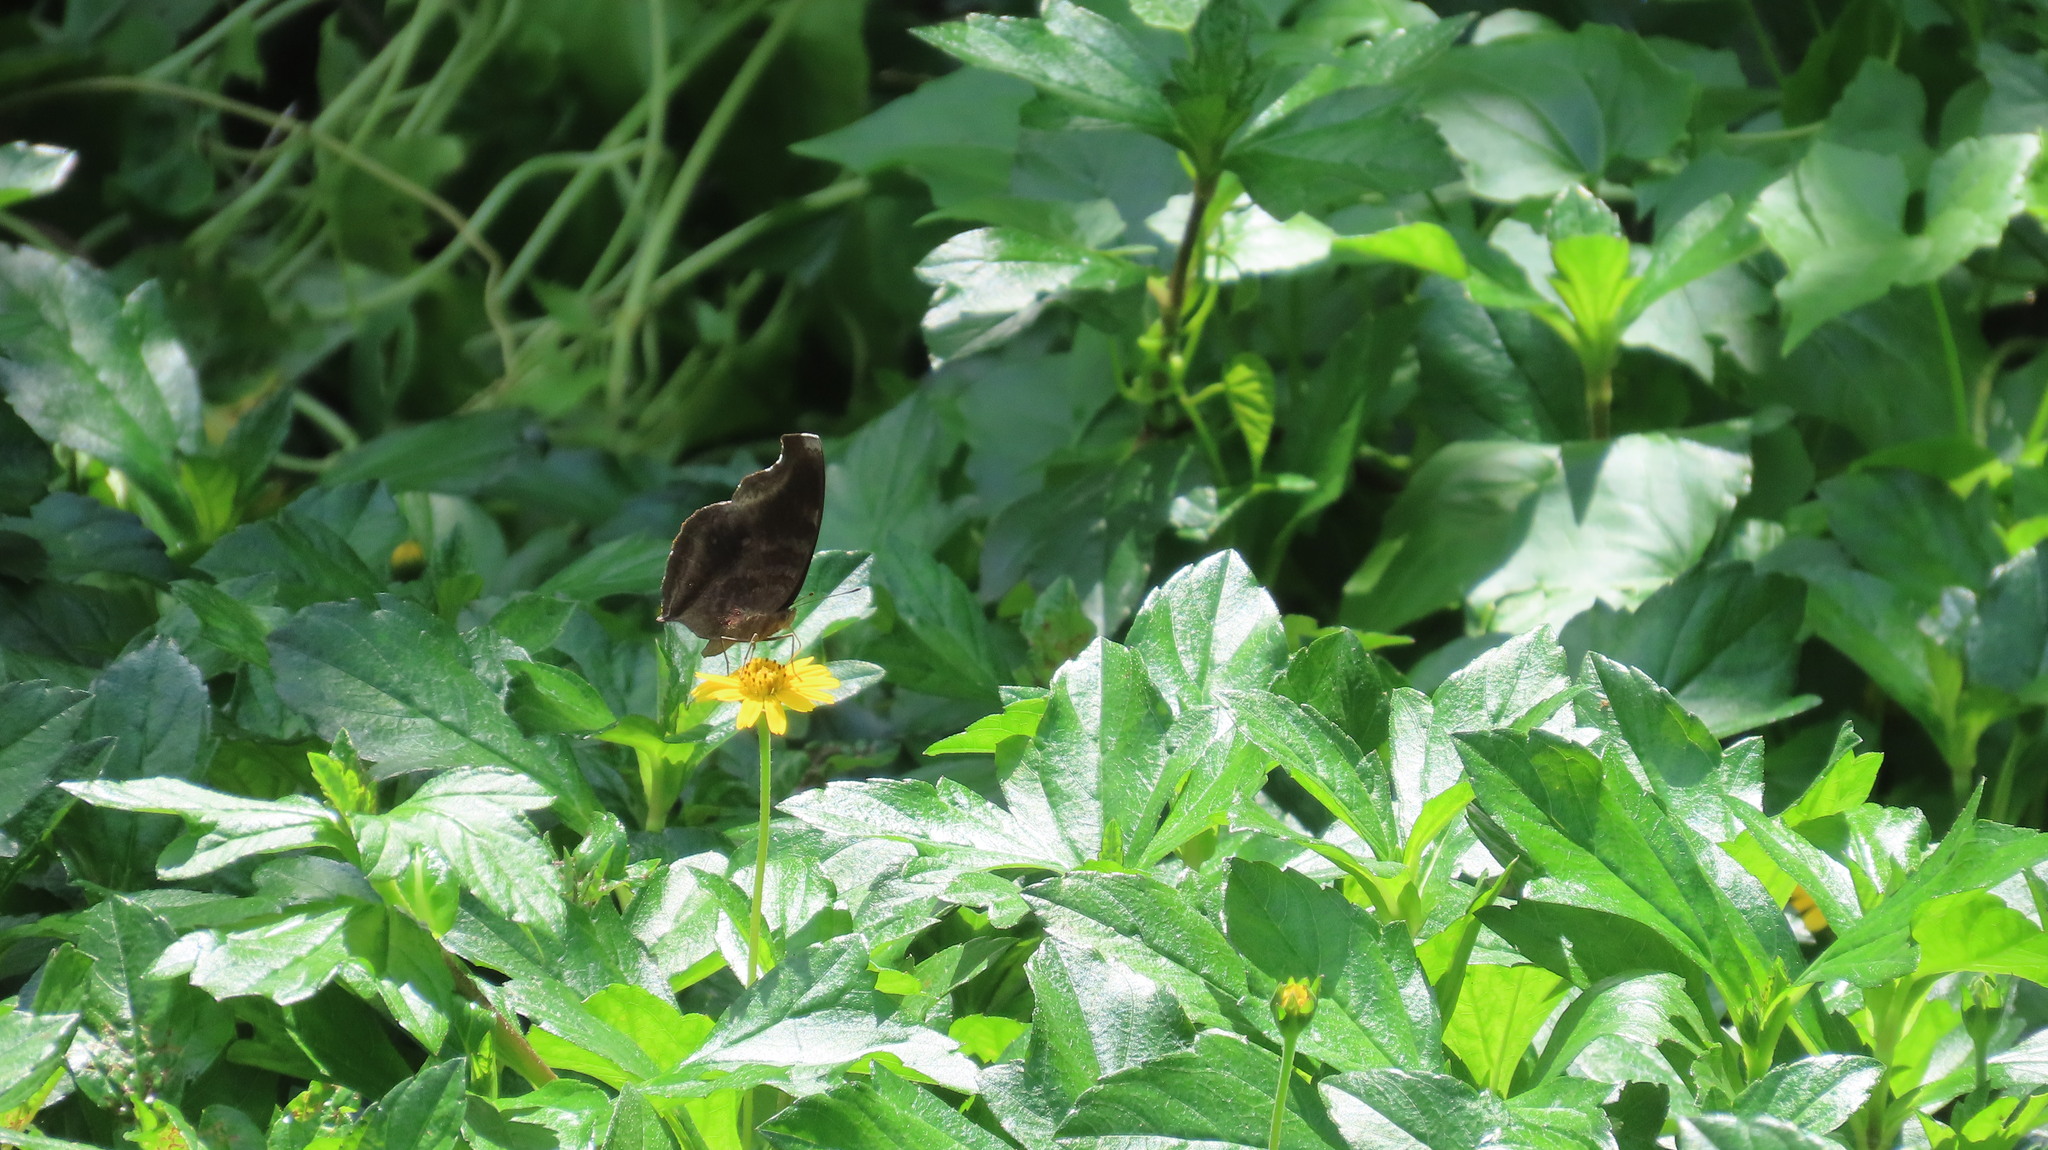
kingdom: Animalia
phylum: Arthropoda
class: Insecta
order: Lepidoptera
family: Nymphalidae
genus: Junonia
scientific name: Junonia iphita
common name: Chocolate pansy
